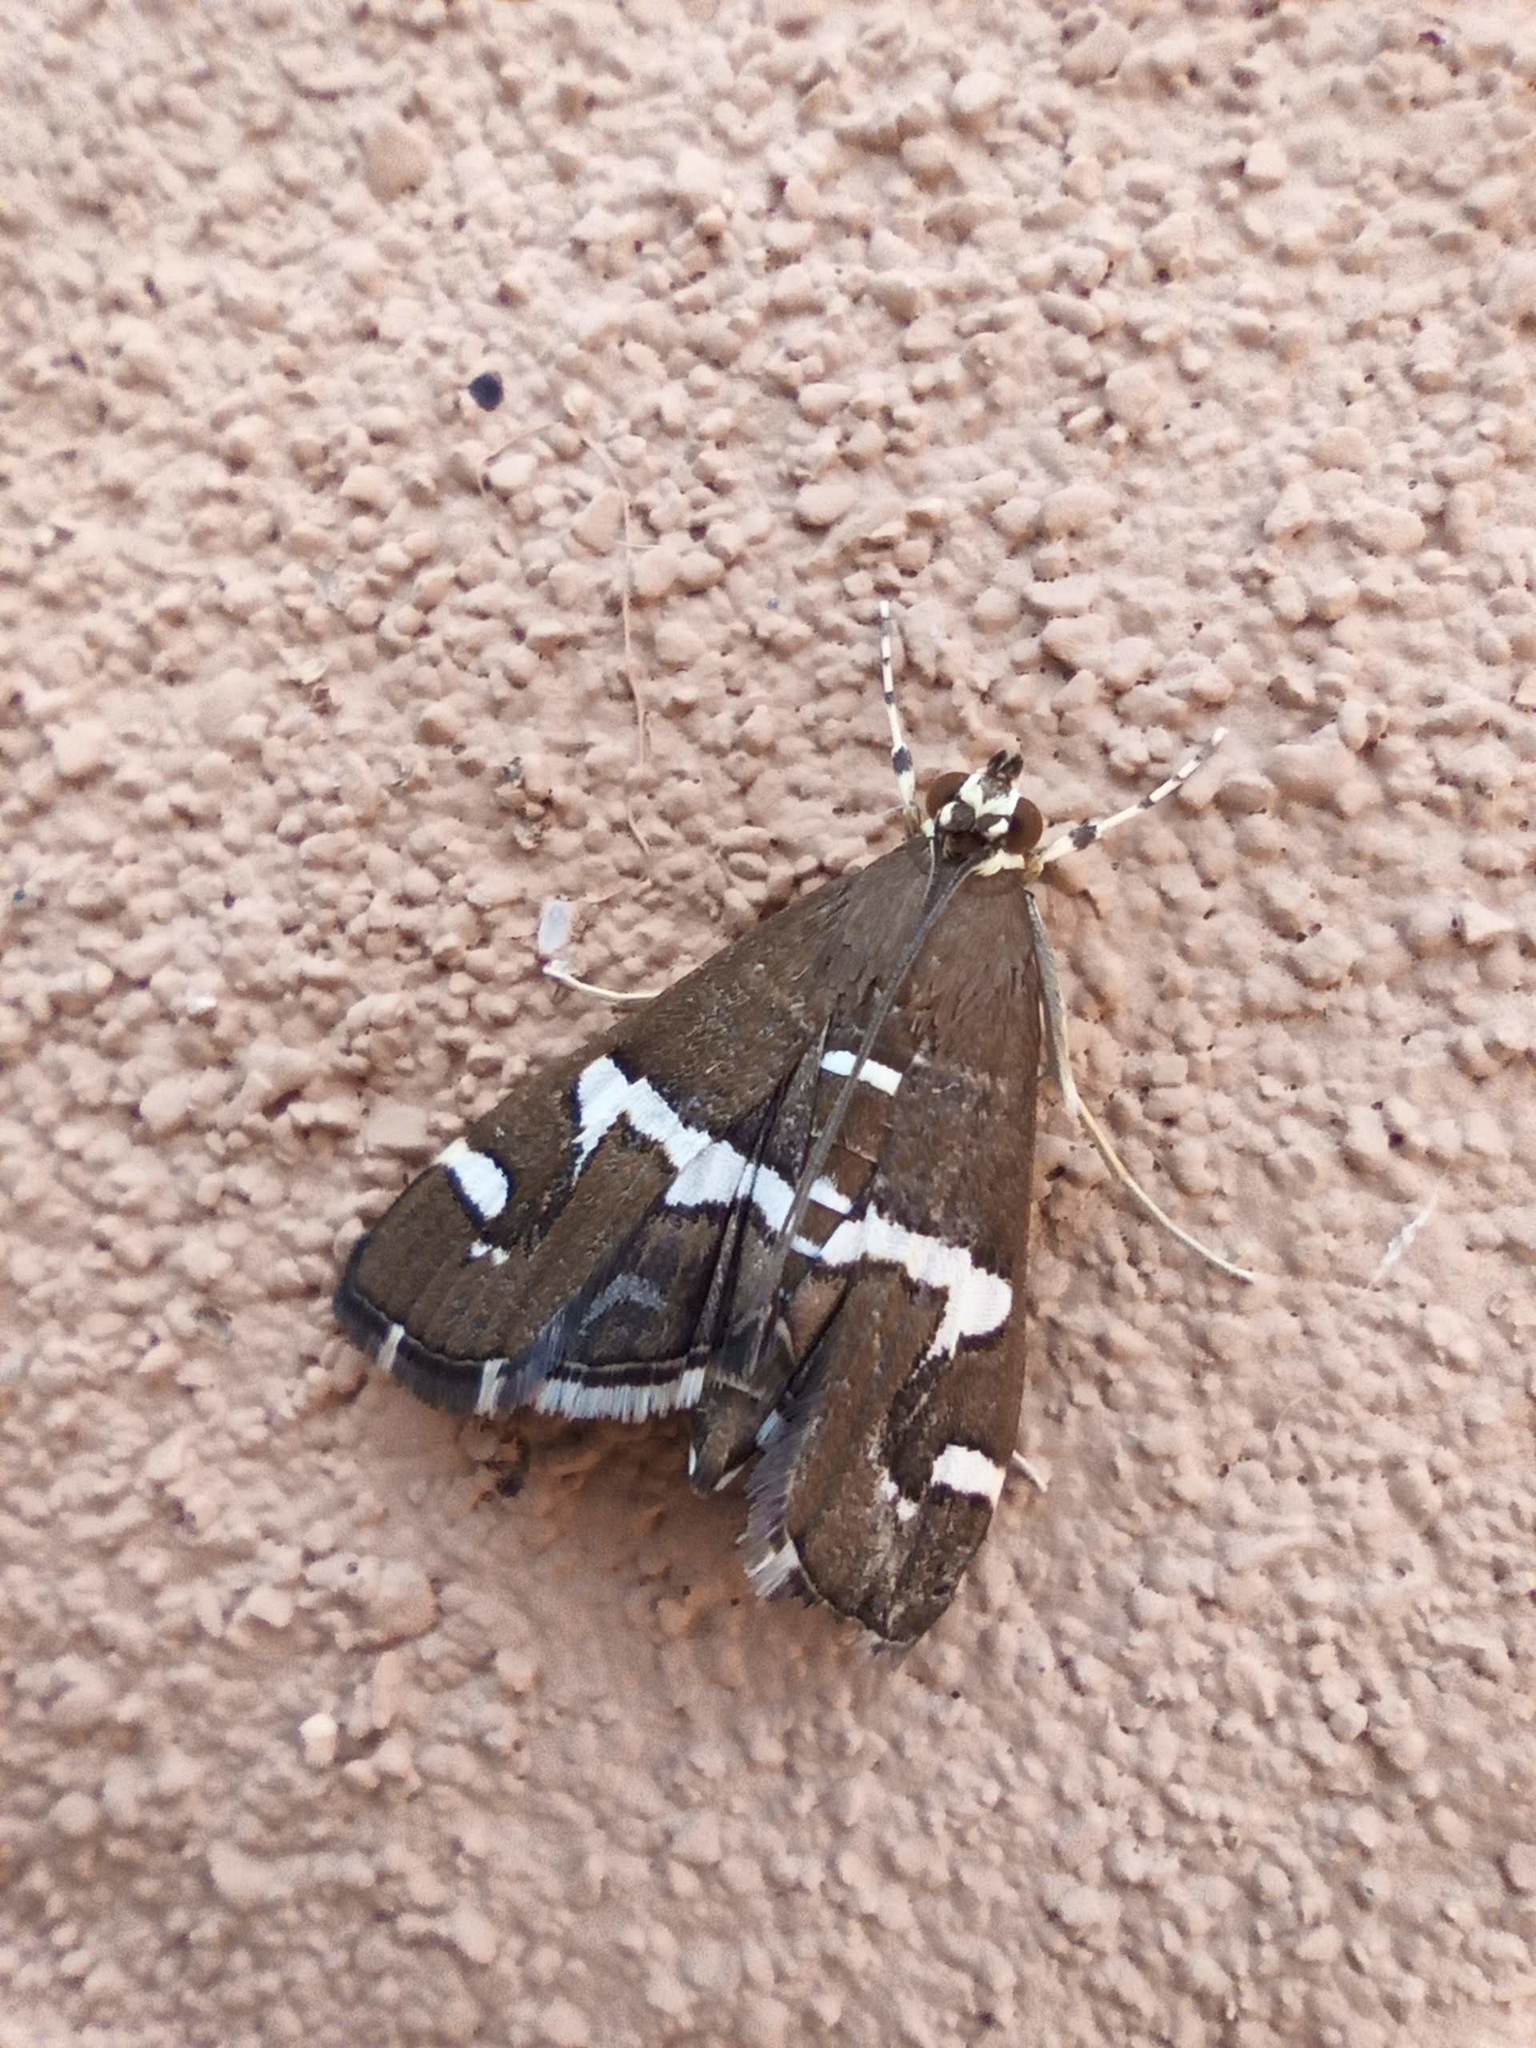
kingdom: Animalia
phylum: Arthropoda
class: Insecta
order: Lepidoptera
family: Crambidae
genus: Spoladea
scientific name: Spoladea recurvalis
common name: Beet webworm moth
